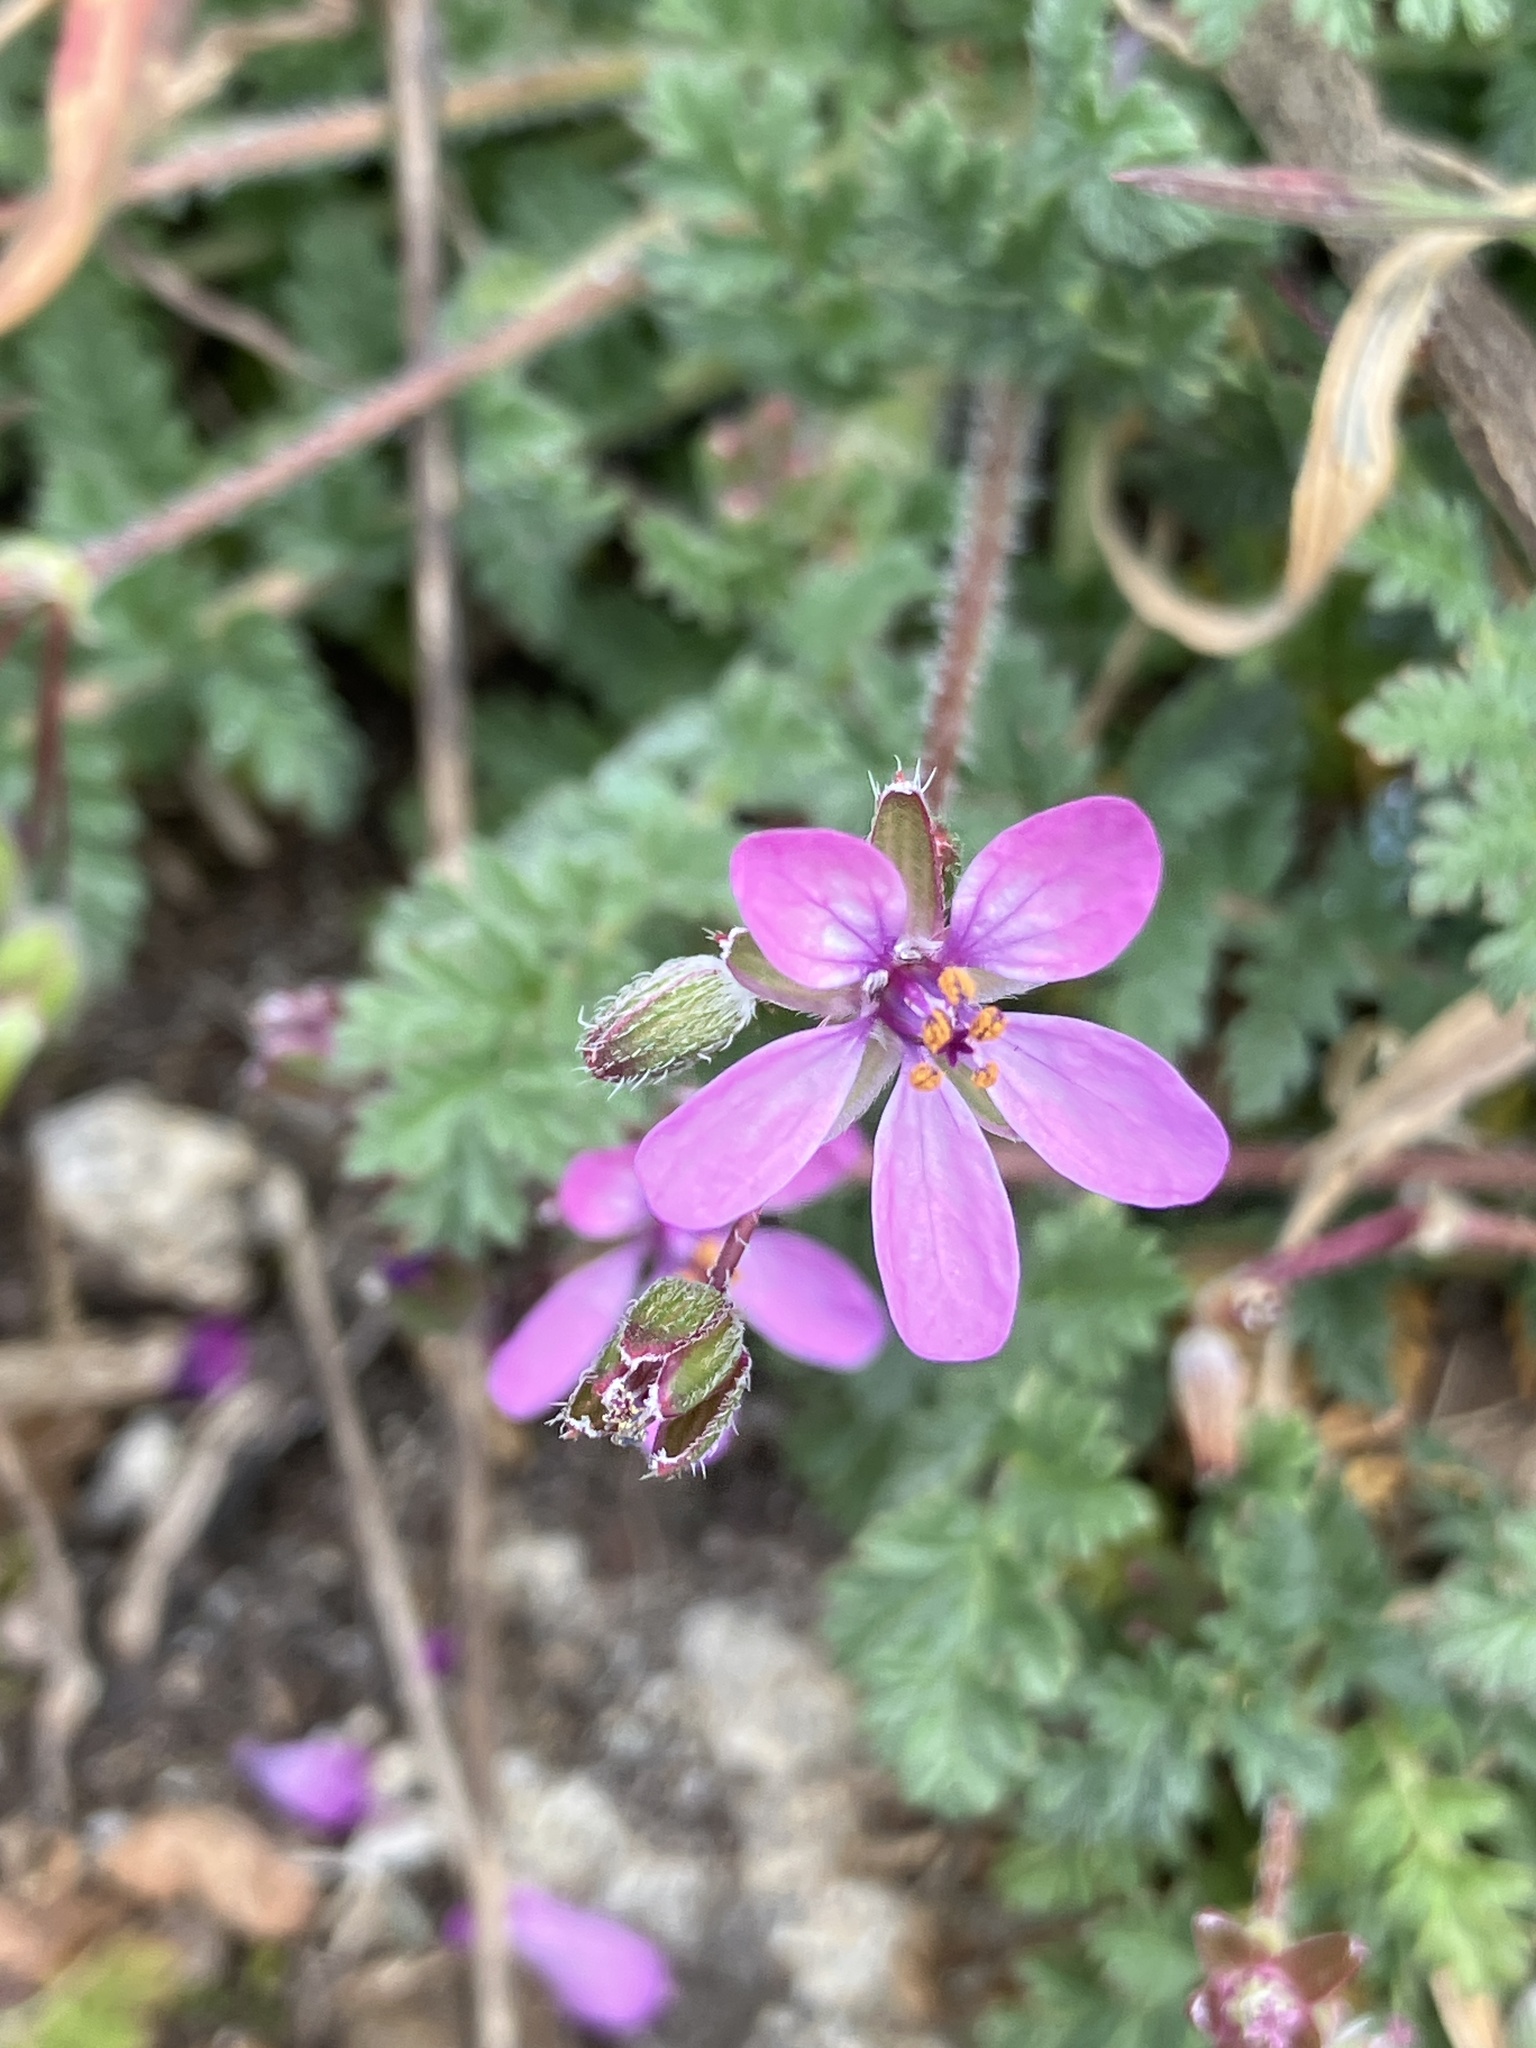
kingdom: Plantae
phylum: Tracheophyta
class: Magnoliopsida
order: Geraniales
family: Geraniaceae
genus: Erodium
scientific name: Erodium cicutarium
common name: Common stork's-bill
